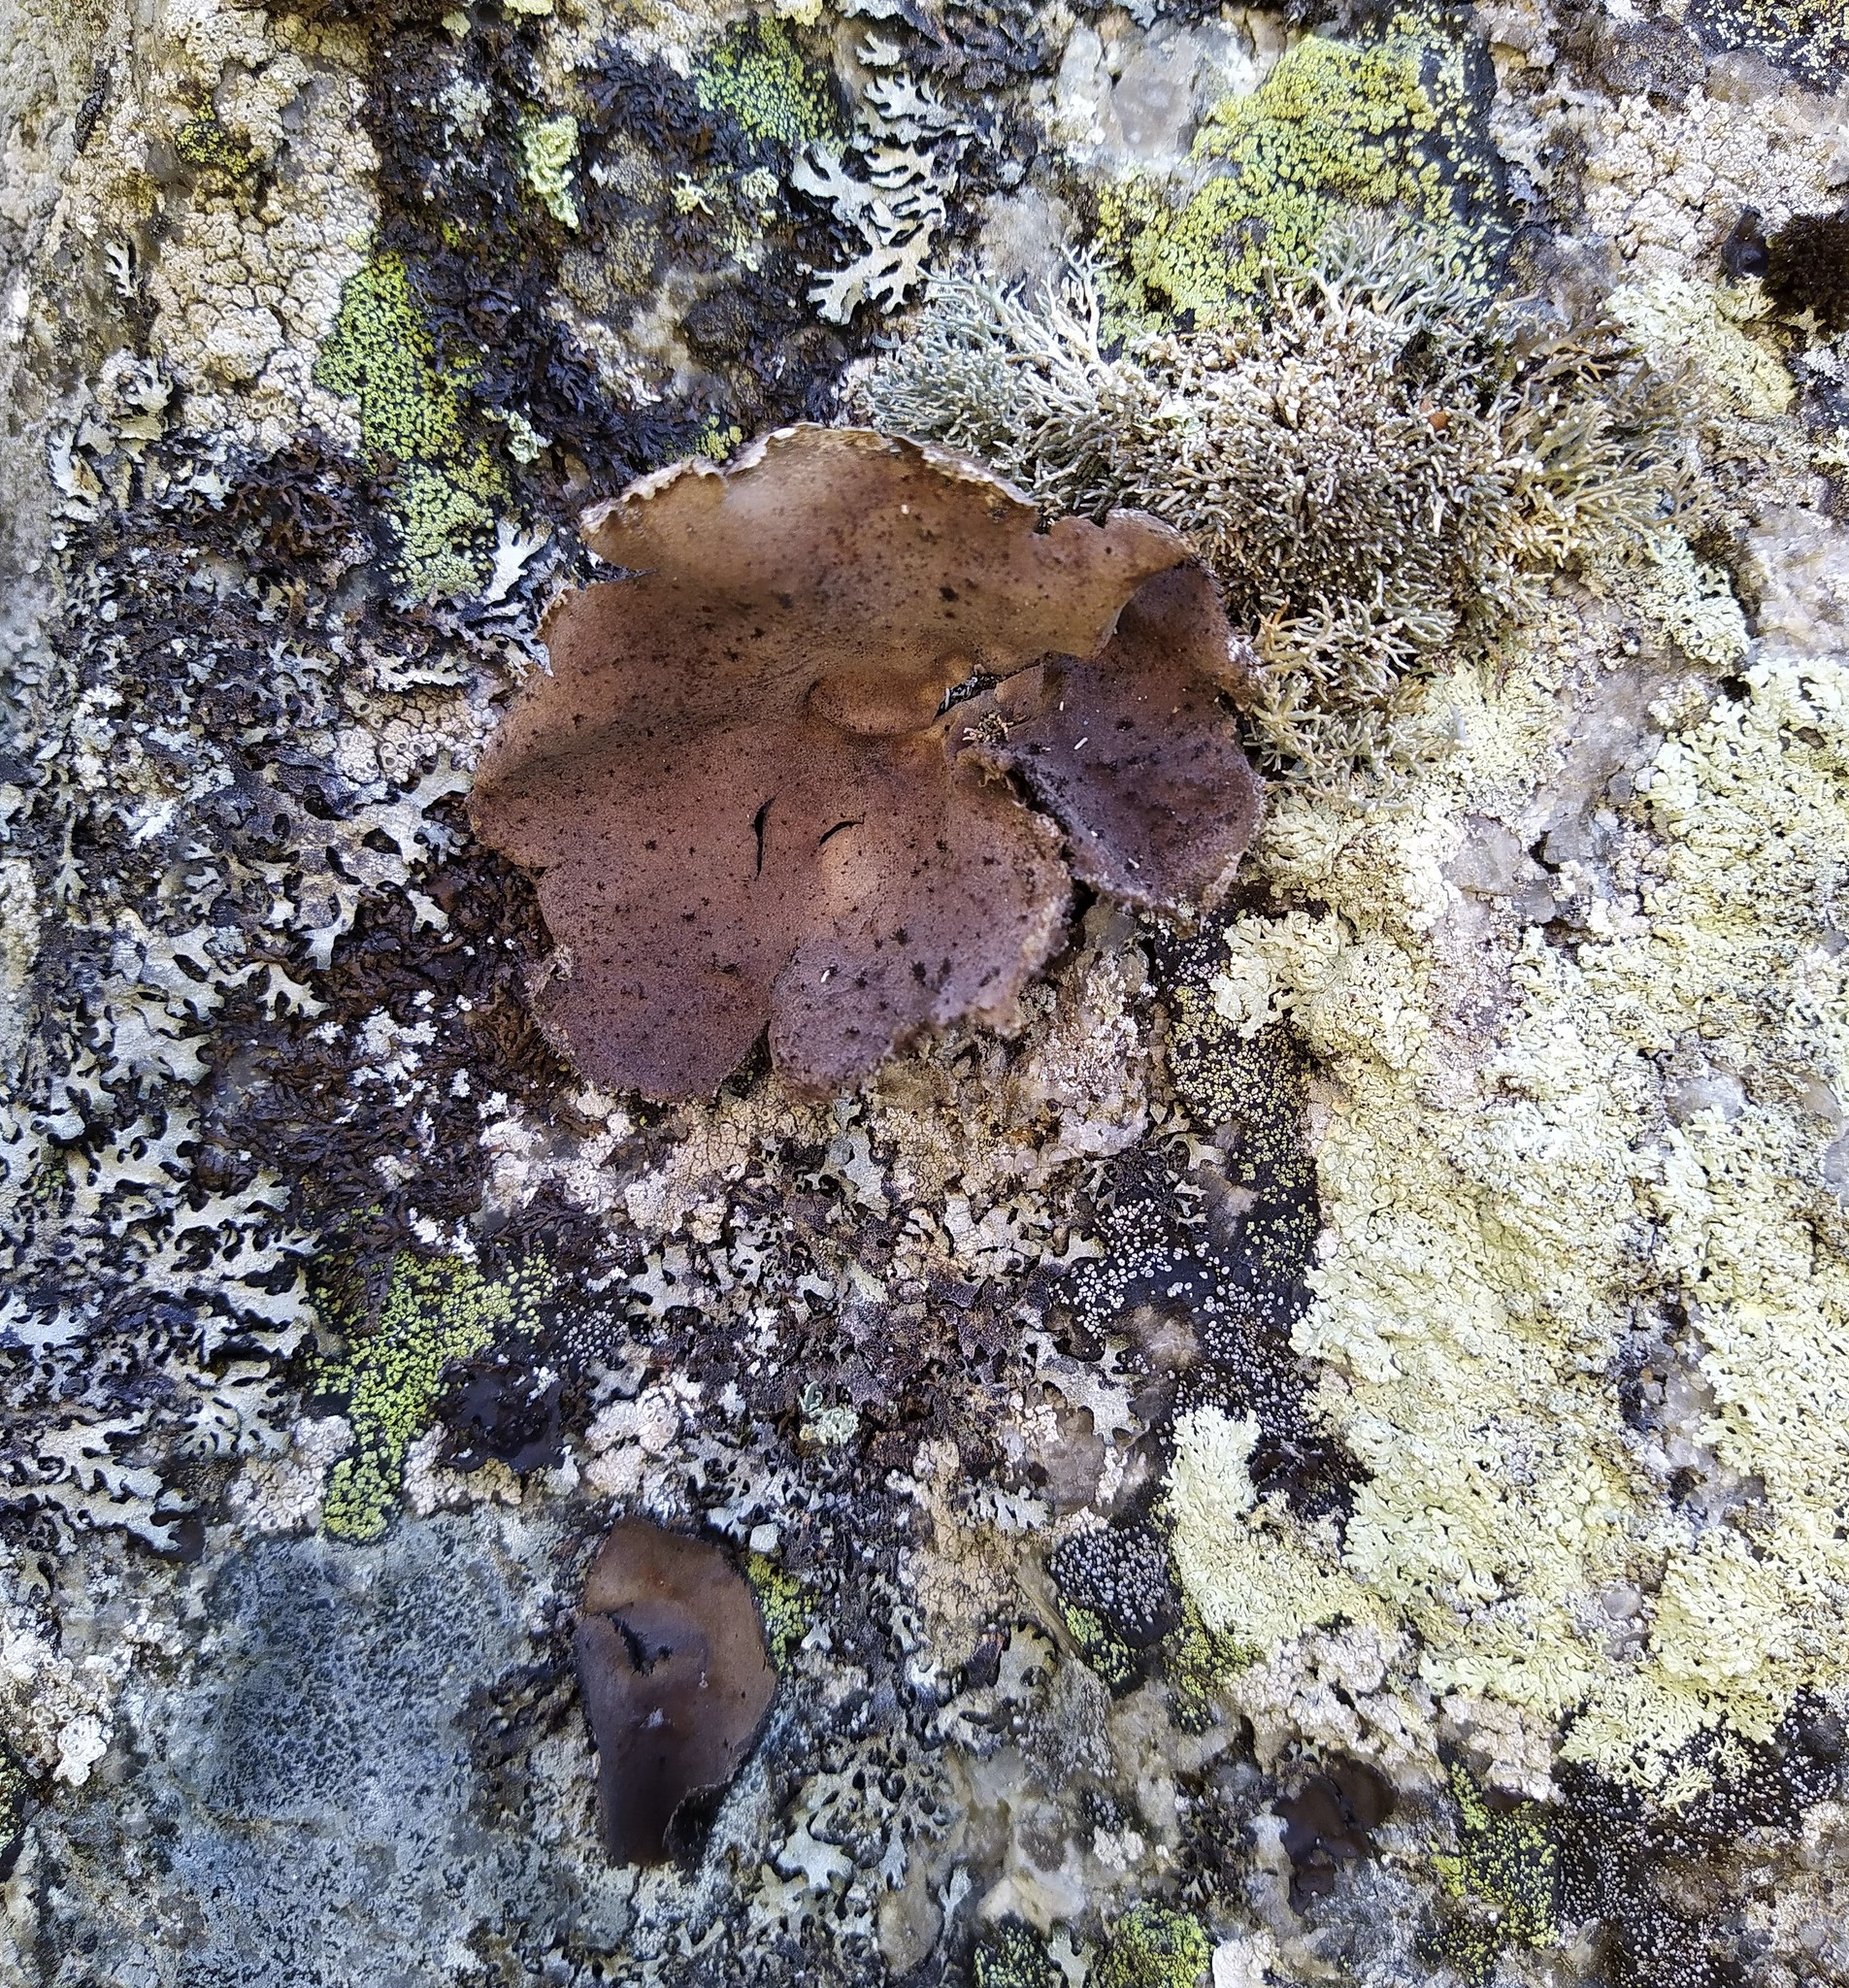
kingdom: Fungi
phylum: Ascomycota
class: Lecanoromycetes
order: Umbilicariales
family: Umbilicariaceae
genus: Umbilicaria
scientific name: Umbilicaria vellea
